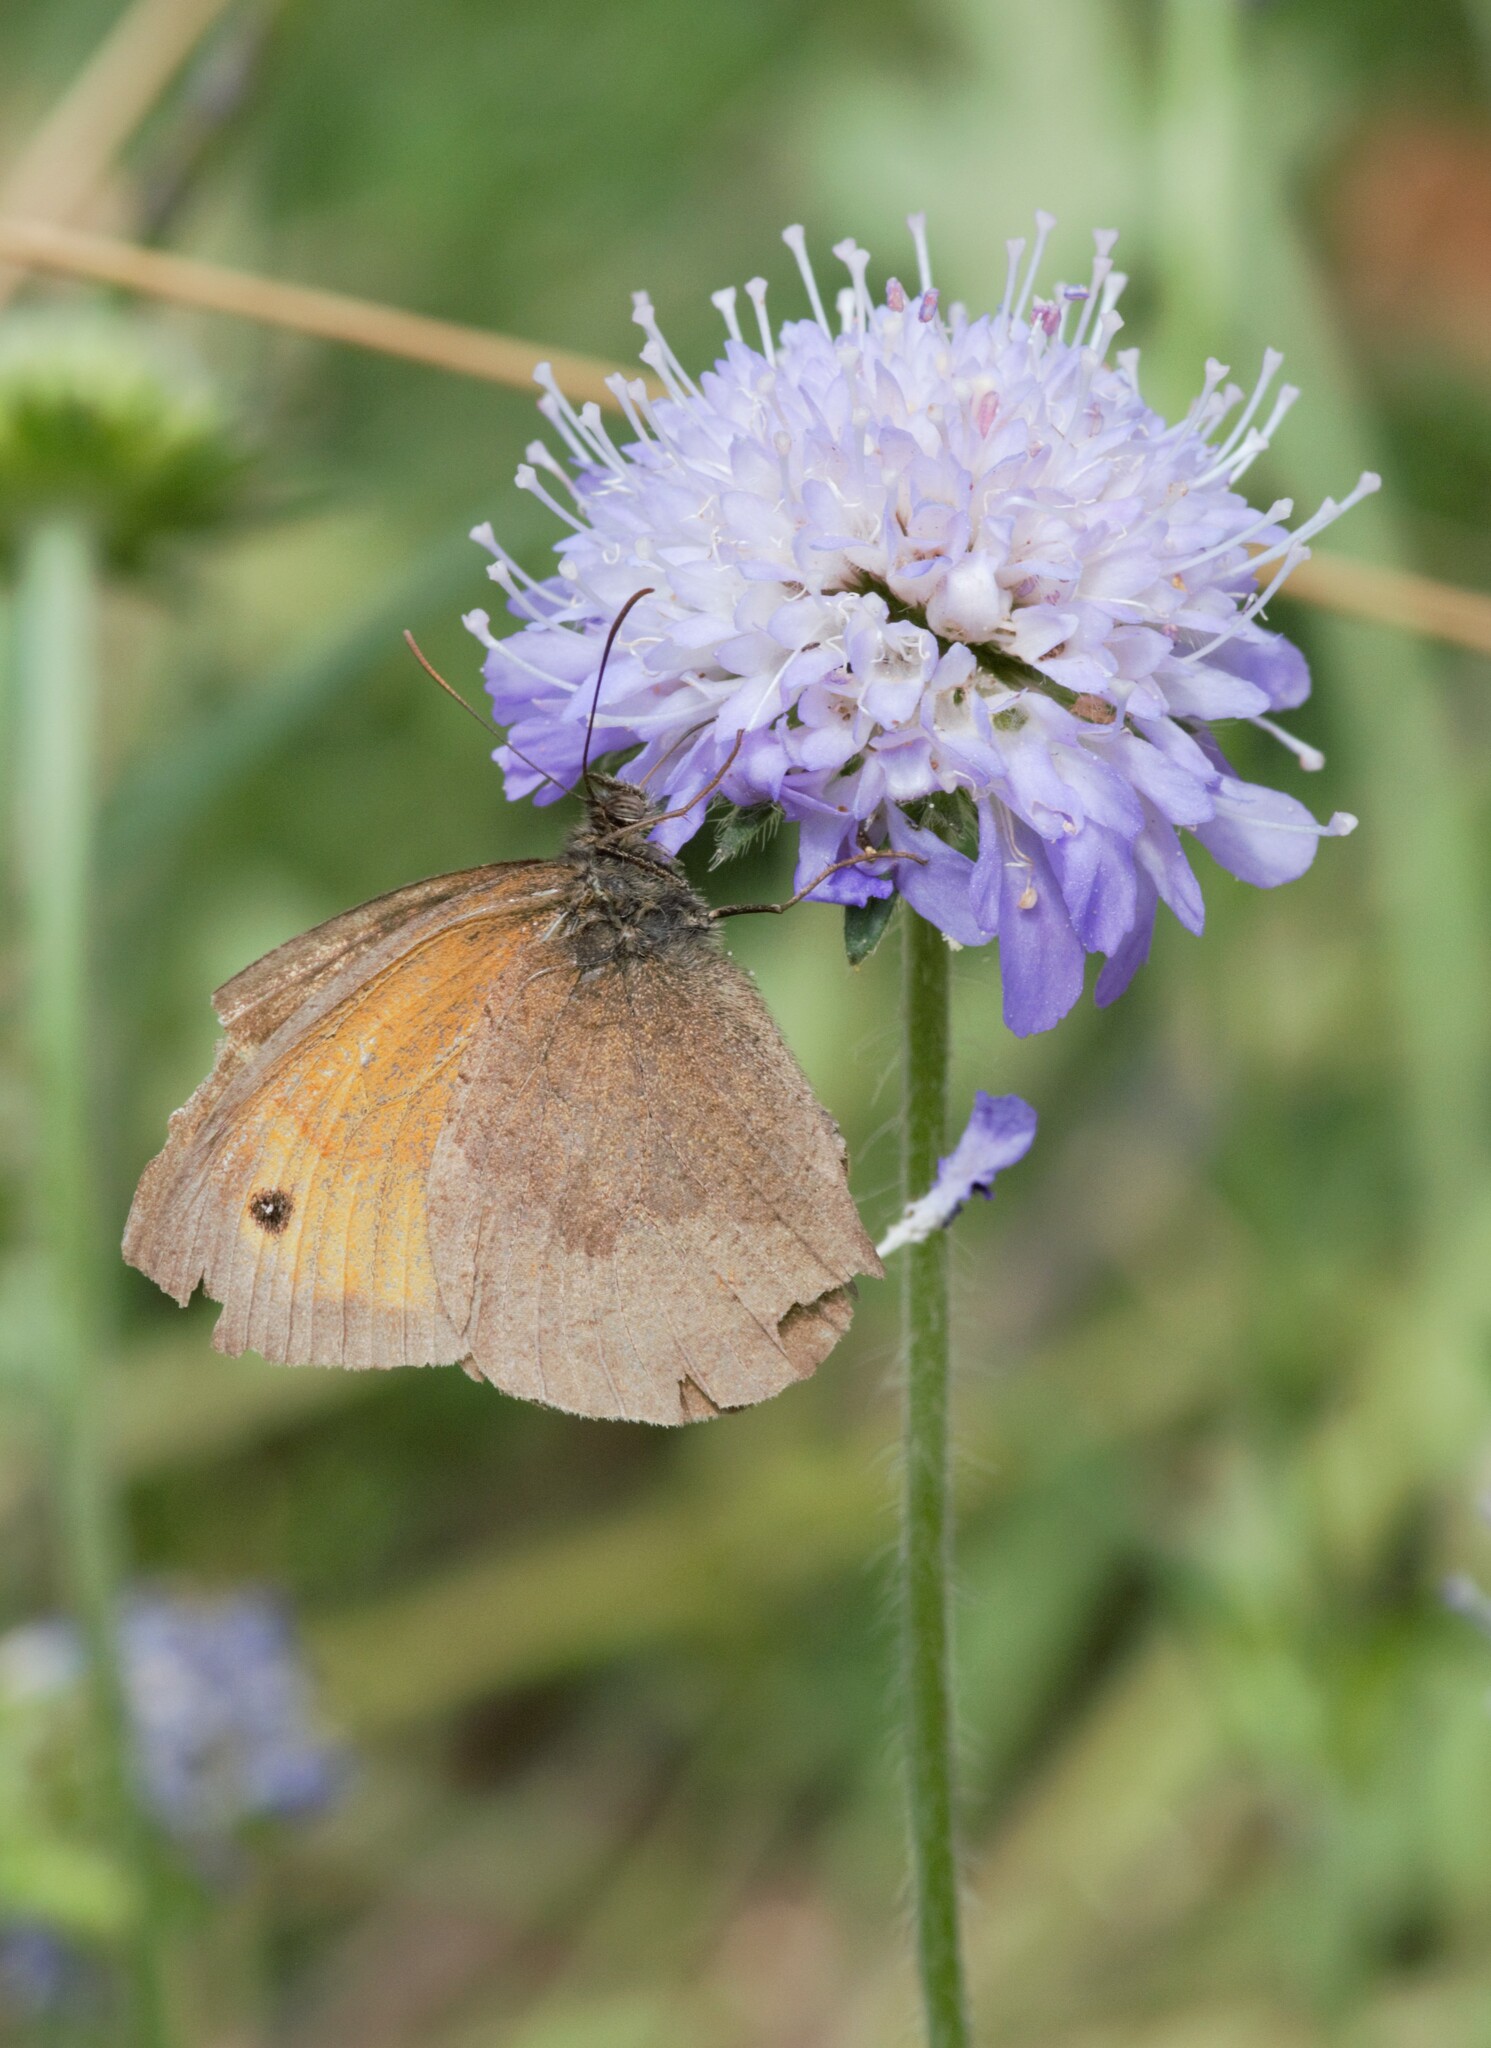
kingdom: Animalia
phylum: Arthropoda
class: Insecta
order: Lepidoptera
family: Nymphalidae
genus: Maniola
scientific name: Maniola jurtina
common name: Meadow brown
